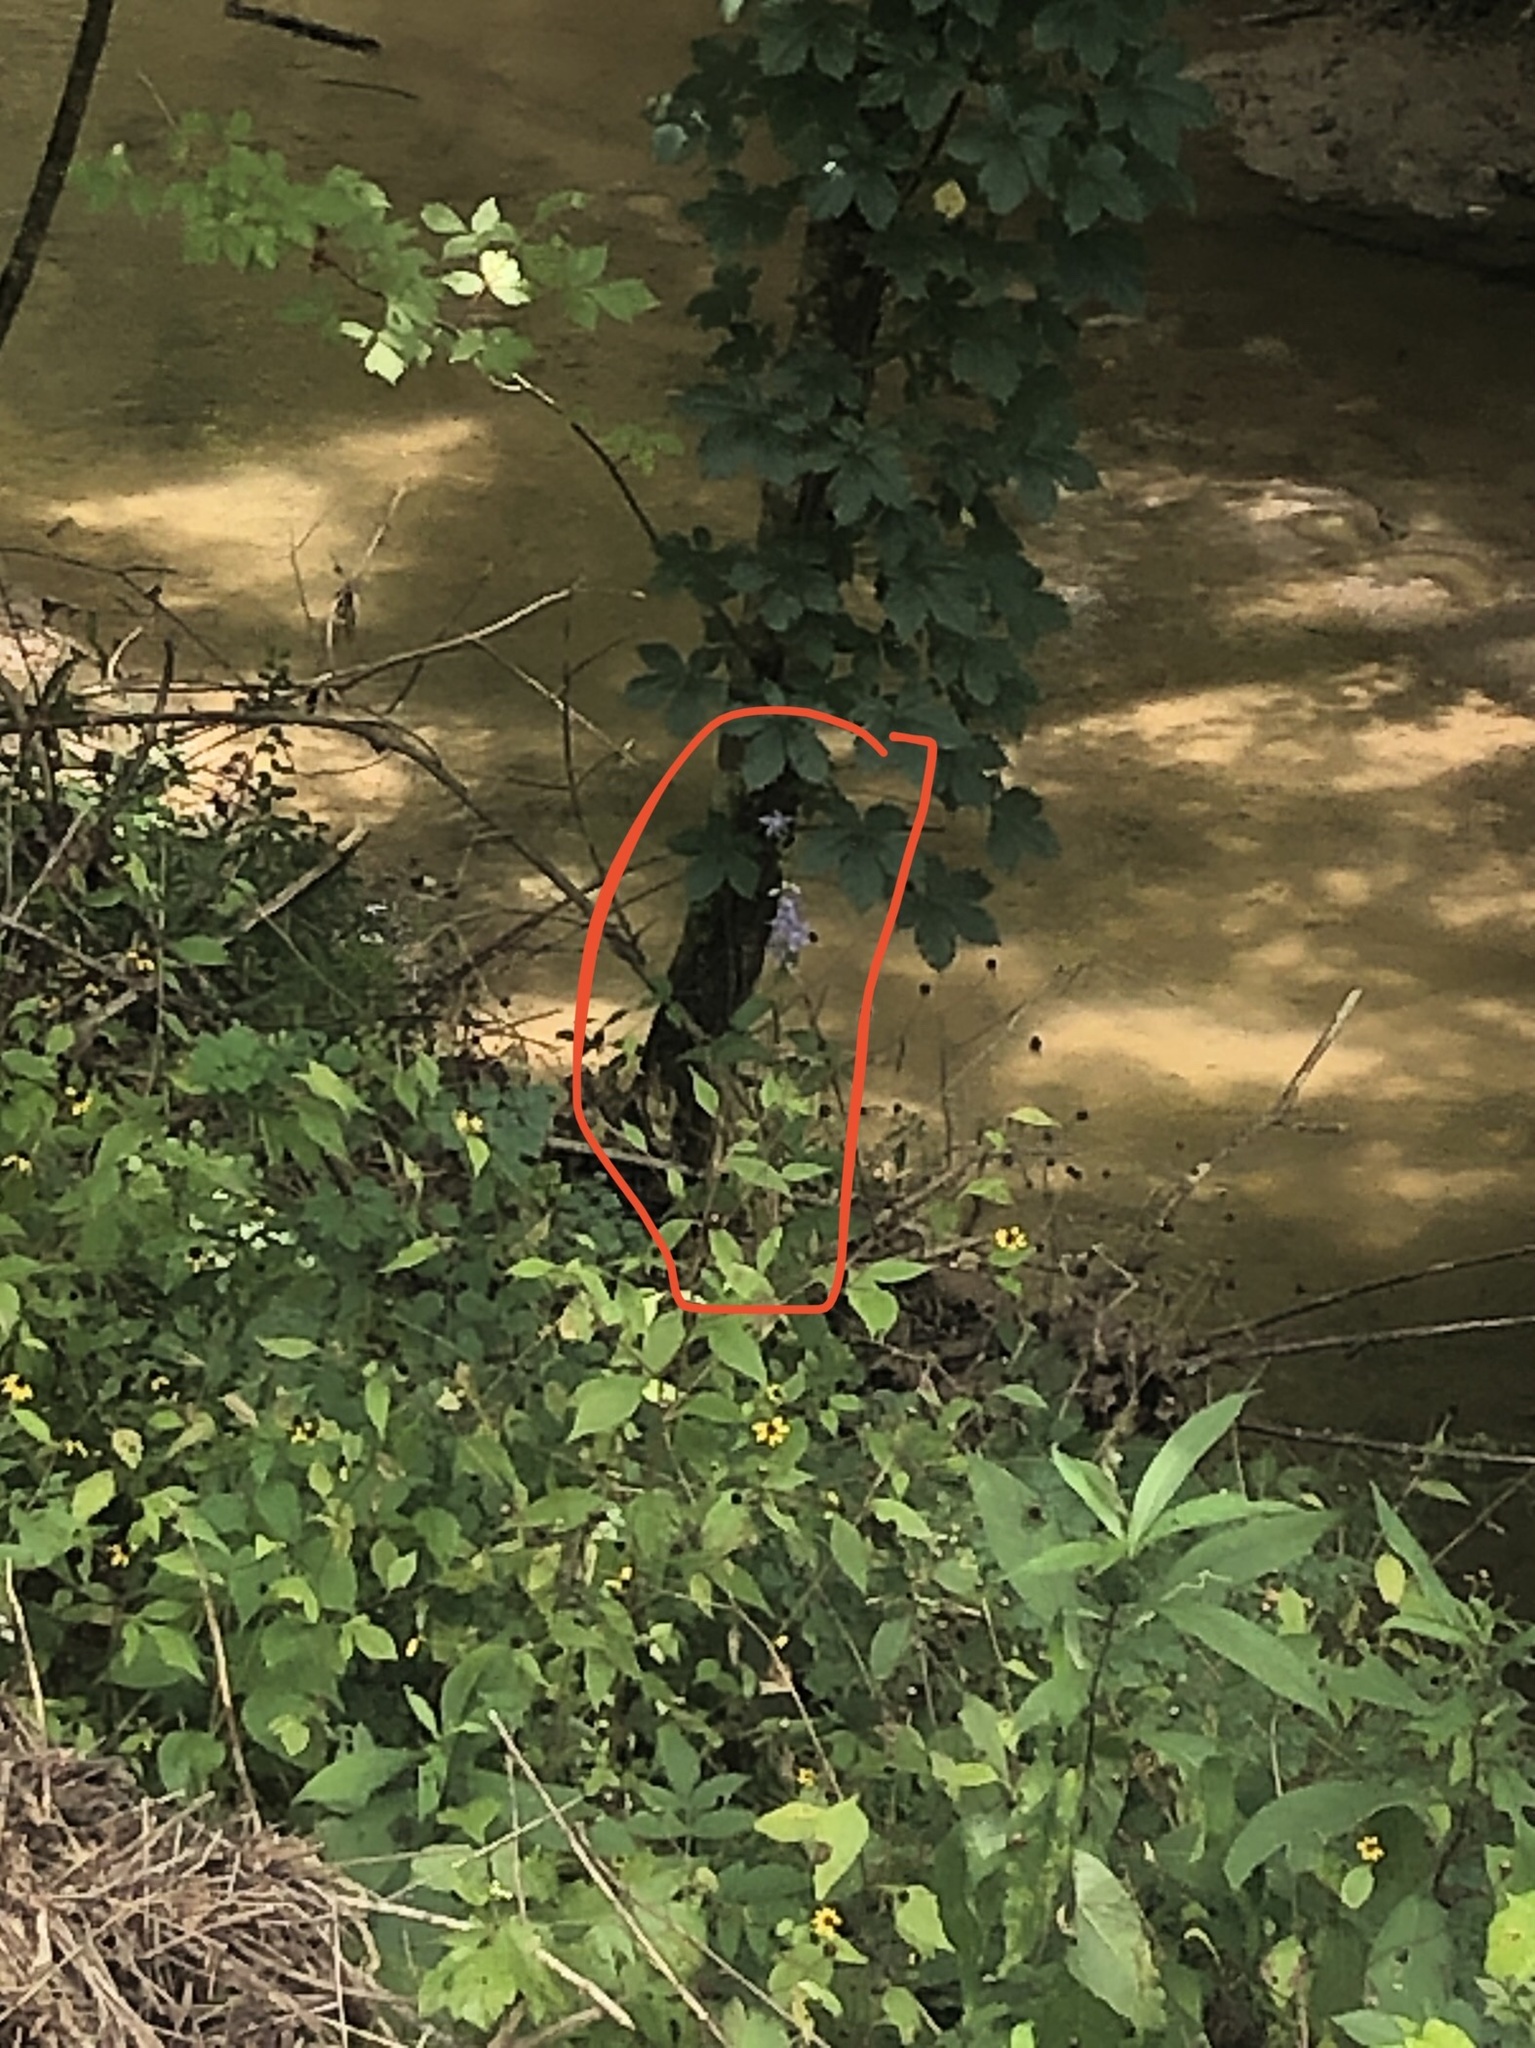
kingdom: Plantae
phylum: Tracheophyta
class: Magnoliopsida
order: Asterales
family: Campanulaceae
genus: Campanulastrum
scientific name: Campanulastrum americanum
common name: American bellflower
